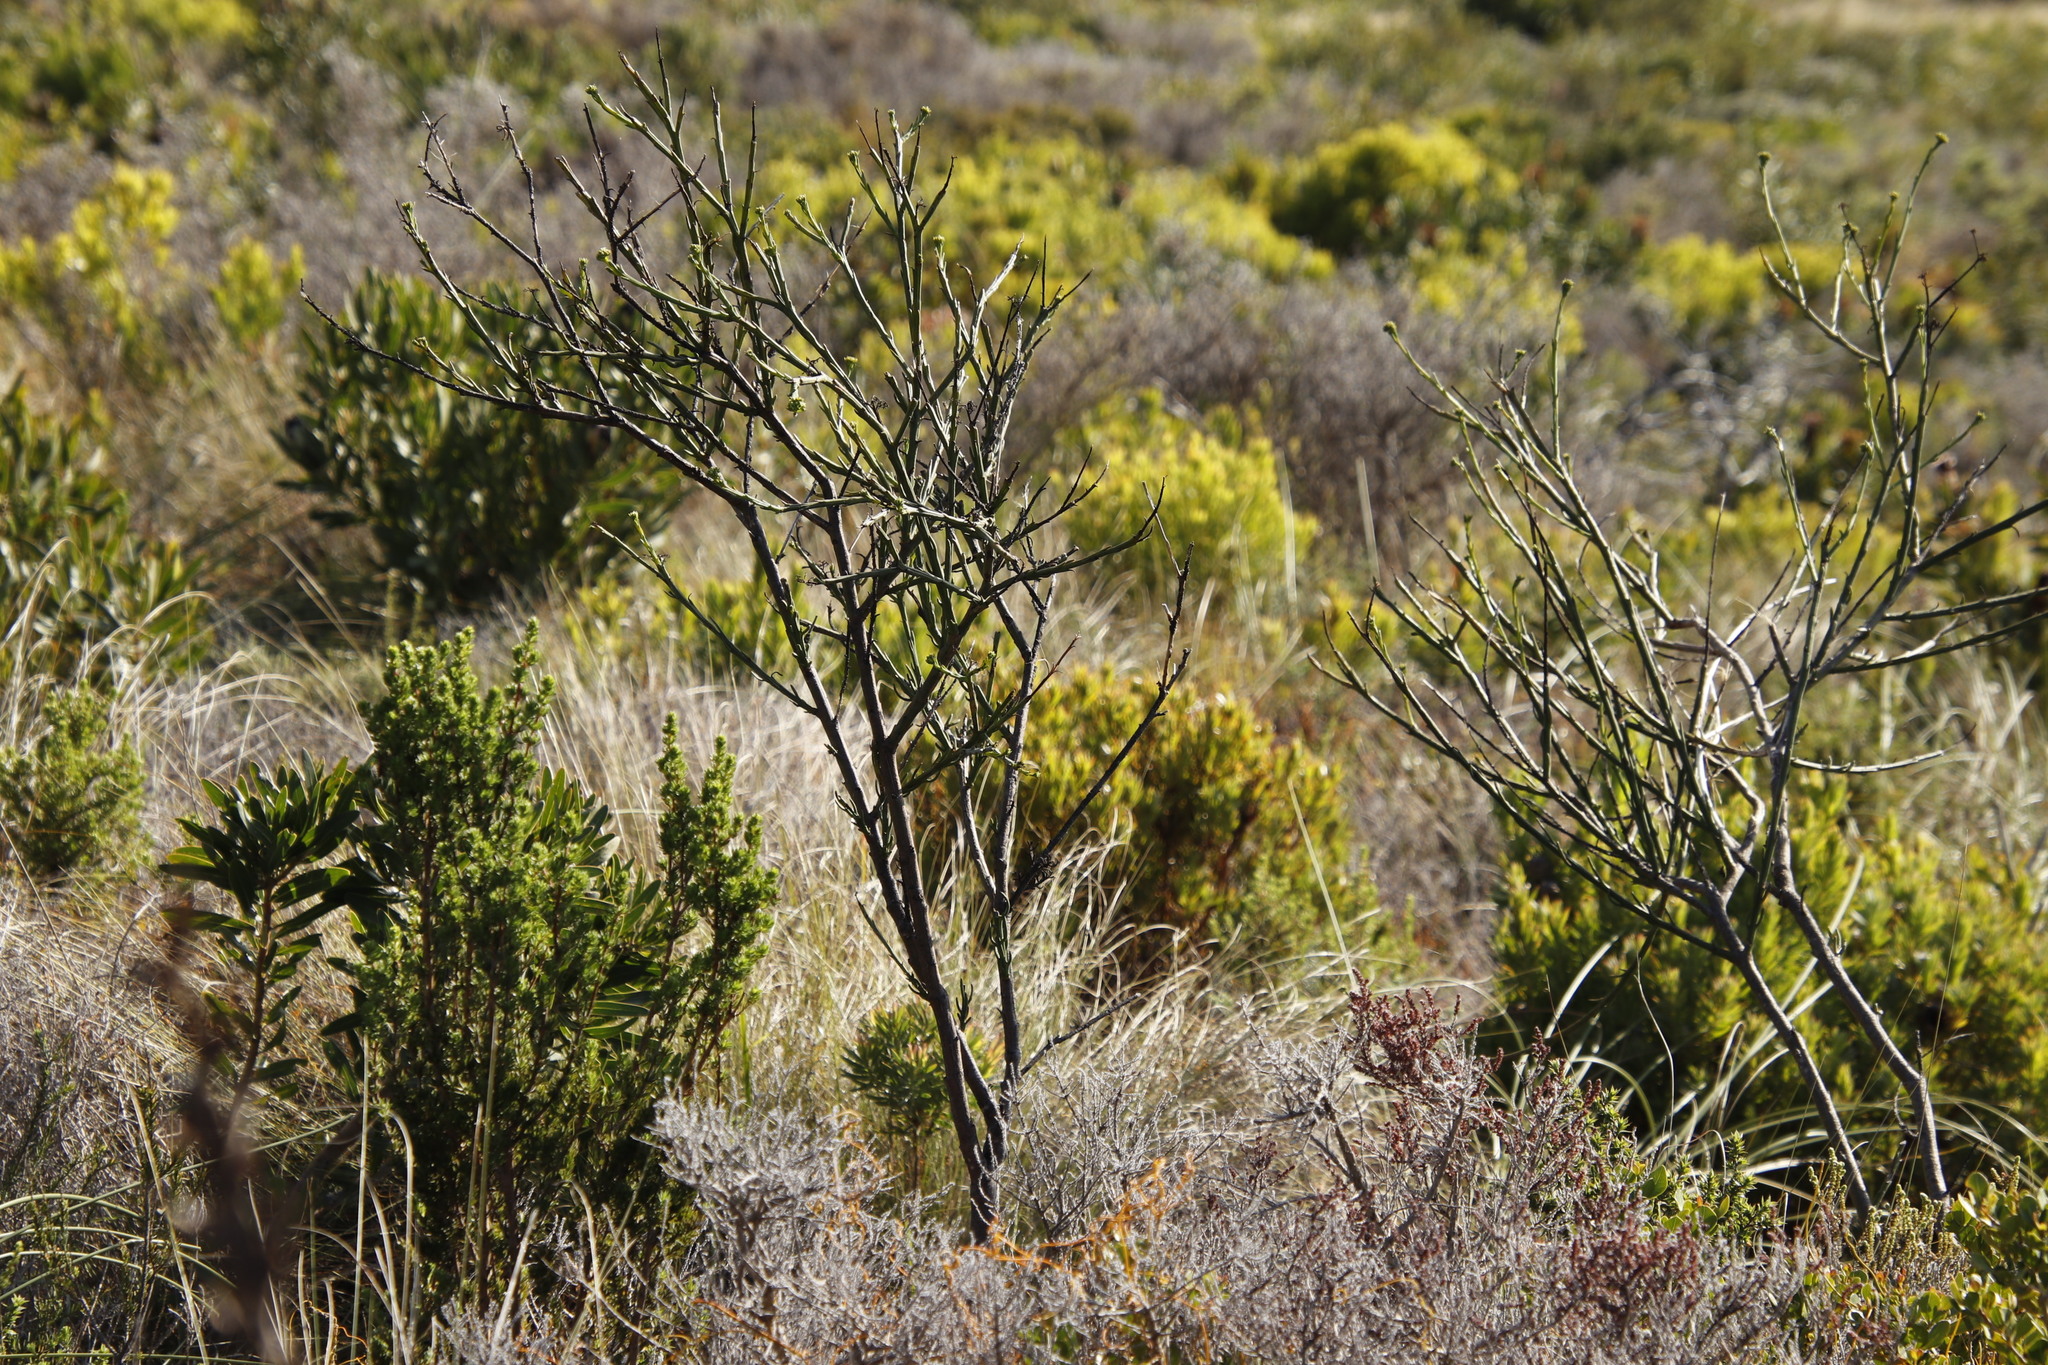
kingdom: Plantae
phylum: Tracheophyta
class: Magnoliopsida
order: Santalales
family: Thesiaceae
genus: Thesium
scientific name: Thesium strictum
